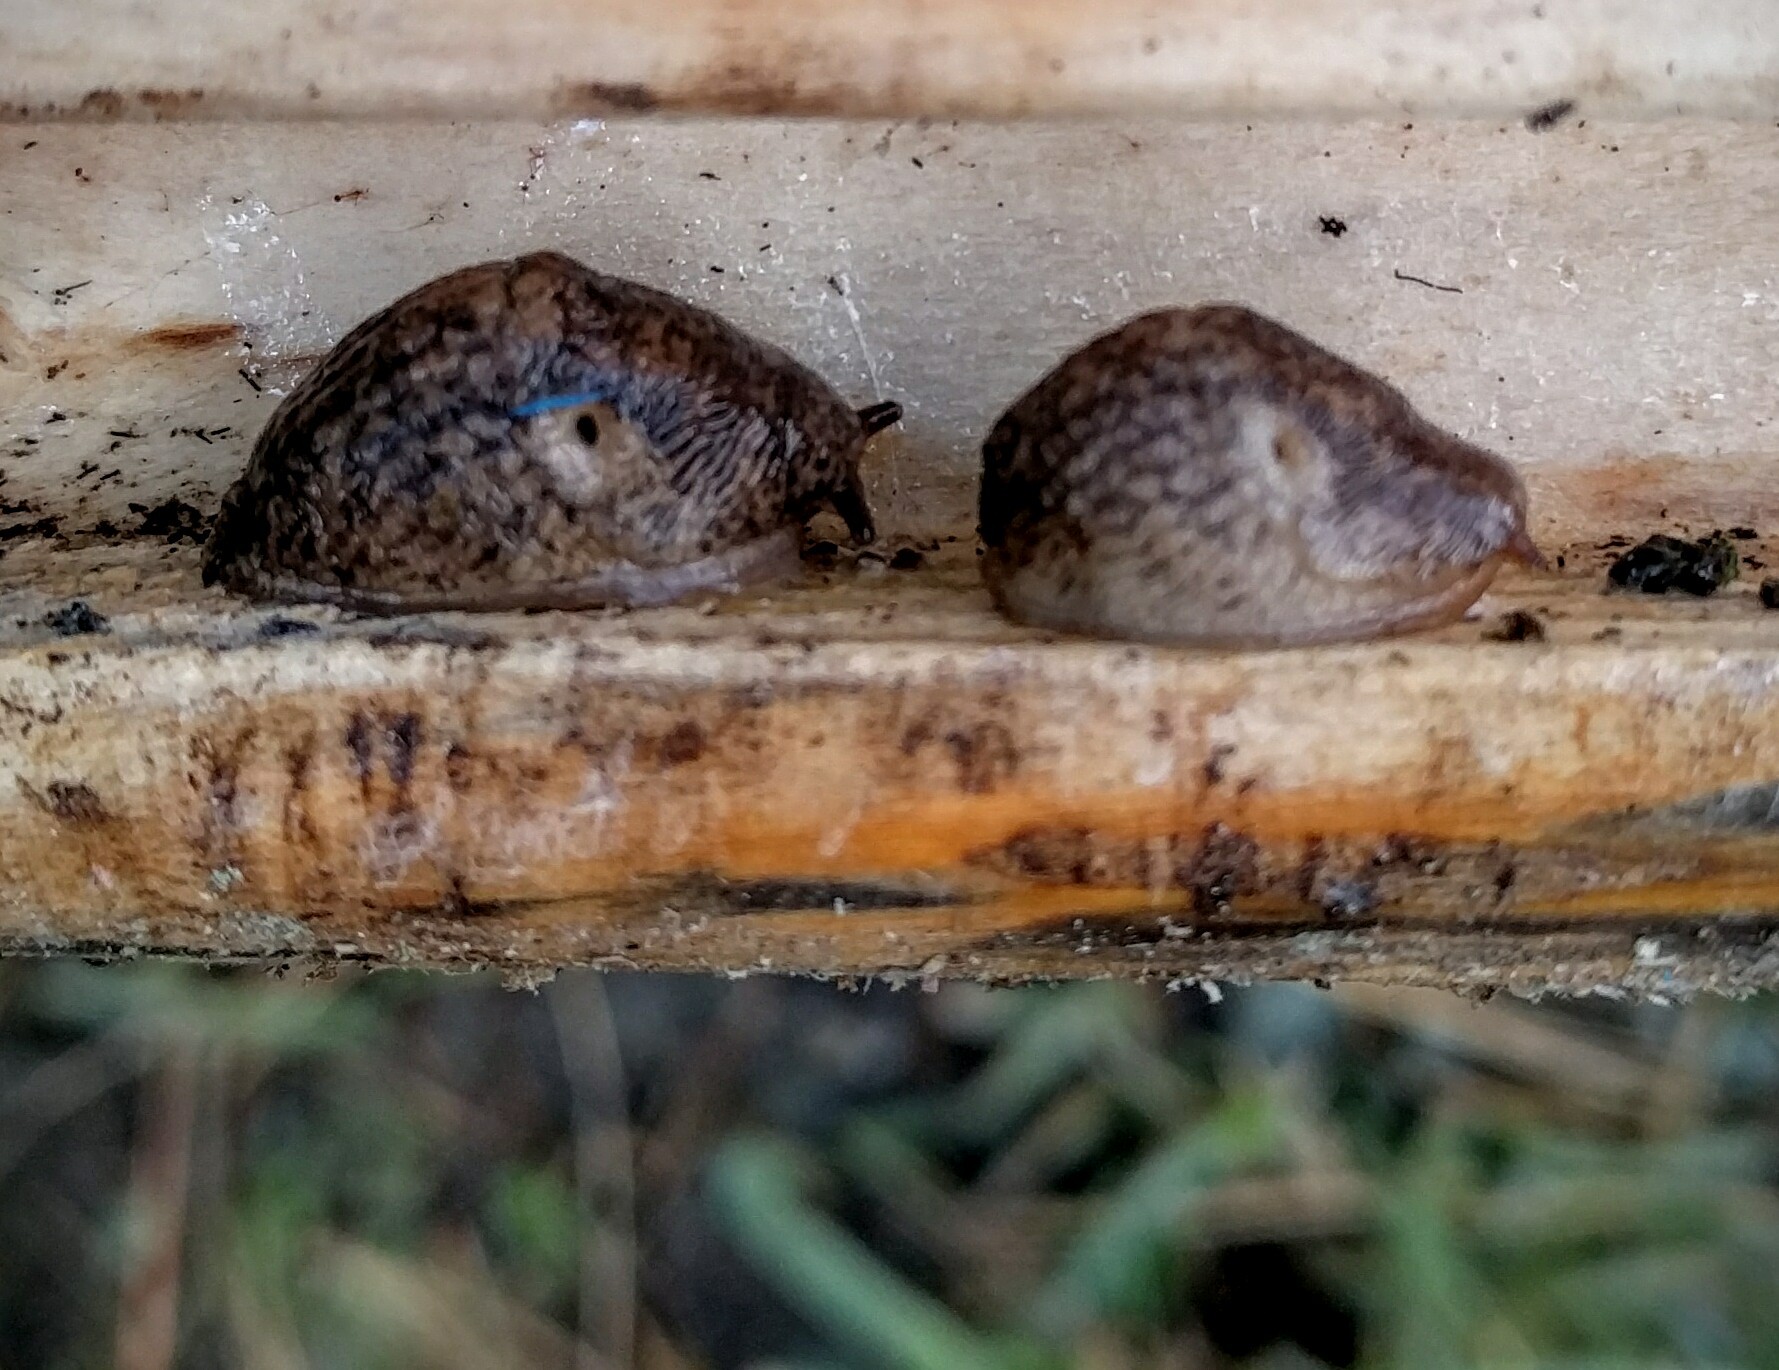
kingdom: Animalia
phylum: Mollusca
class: Gastropoda
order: Stylommatophora
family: Agriolimacidae
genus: Deroceras
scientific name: Deroceras reticulatum
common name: Gray field slug
